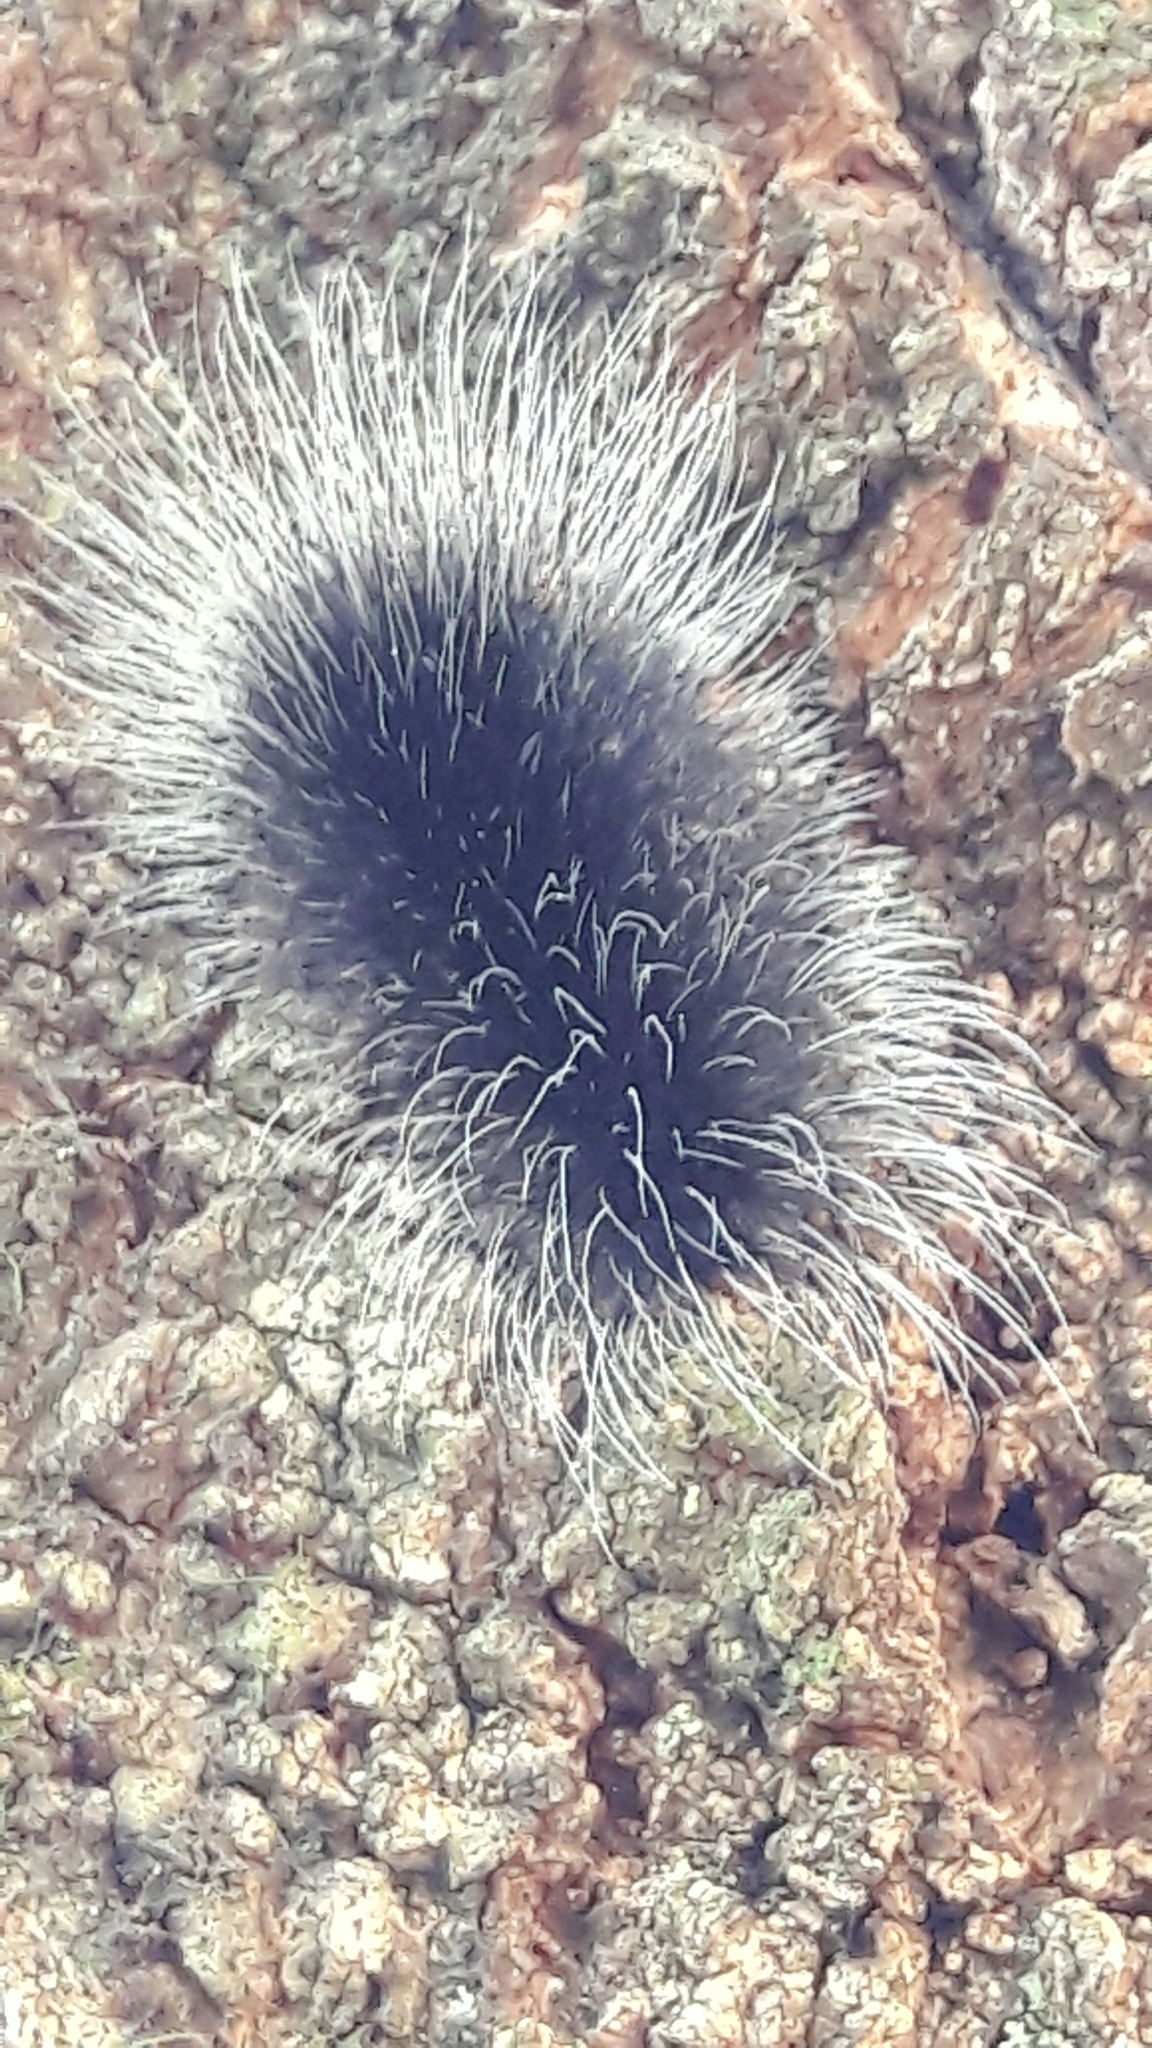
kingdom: Animalia
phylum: Arthropoda
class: Insecta
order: Lepidoptera
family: Erebidae
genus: Apistosia
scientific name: Apistosia judas
